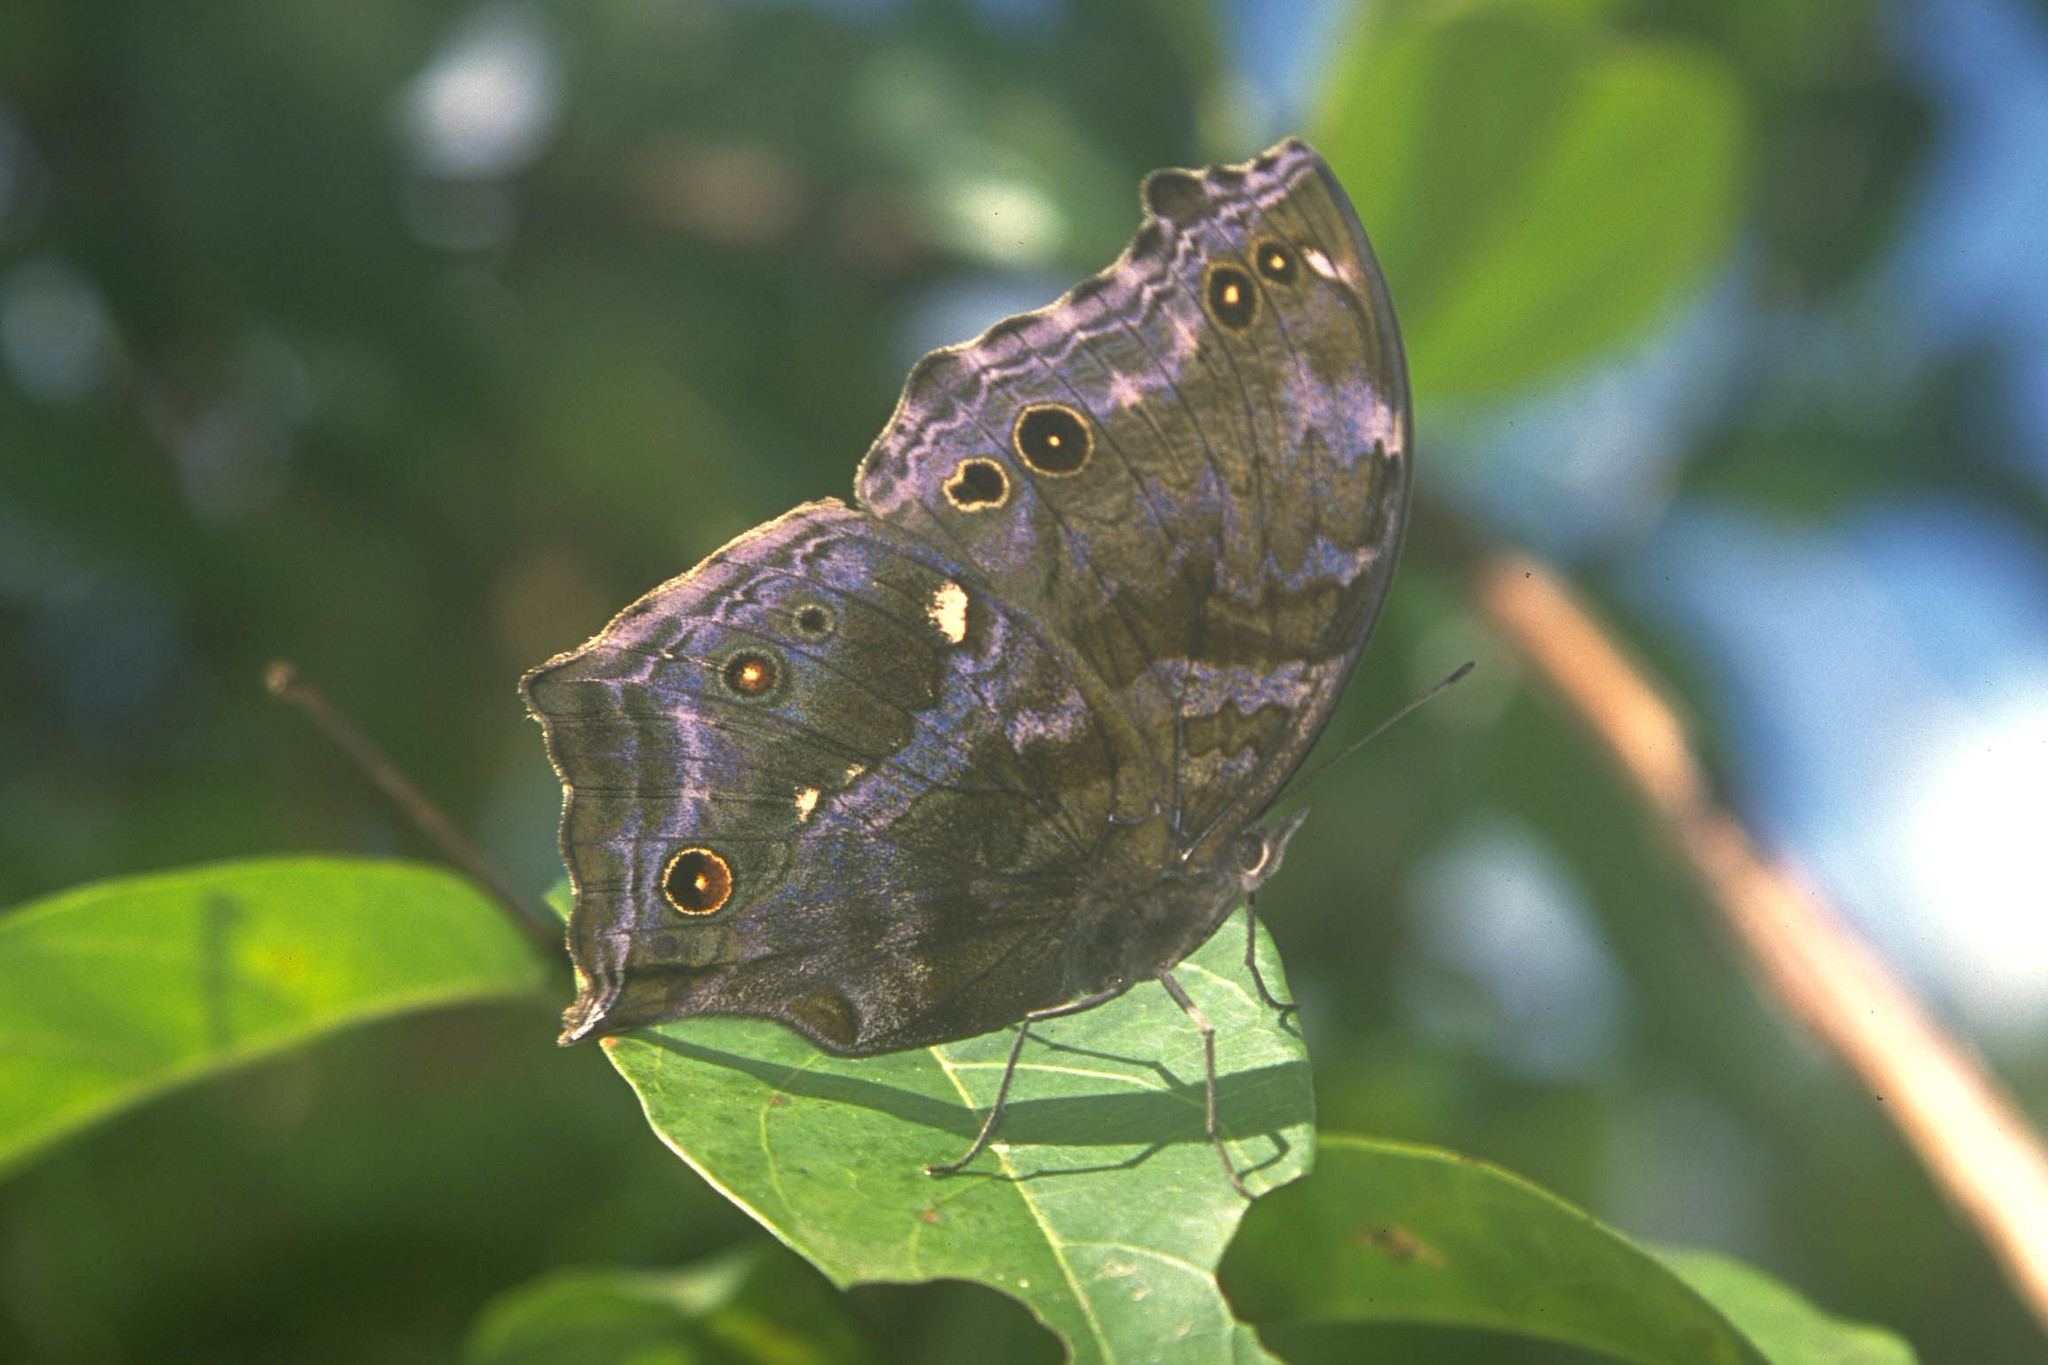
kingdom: Animalia
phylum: Arthropoda
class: Insecta
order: Lepidoptera
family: Nymphalidae
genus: Junonia
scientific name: Junonia
